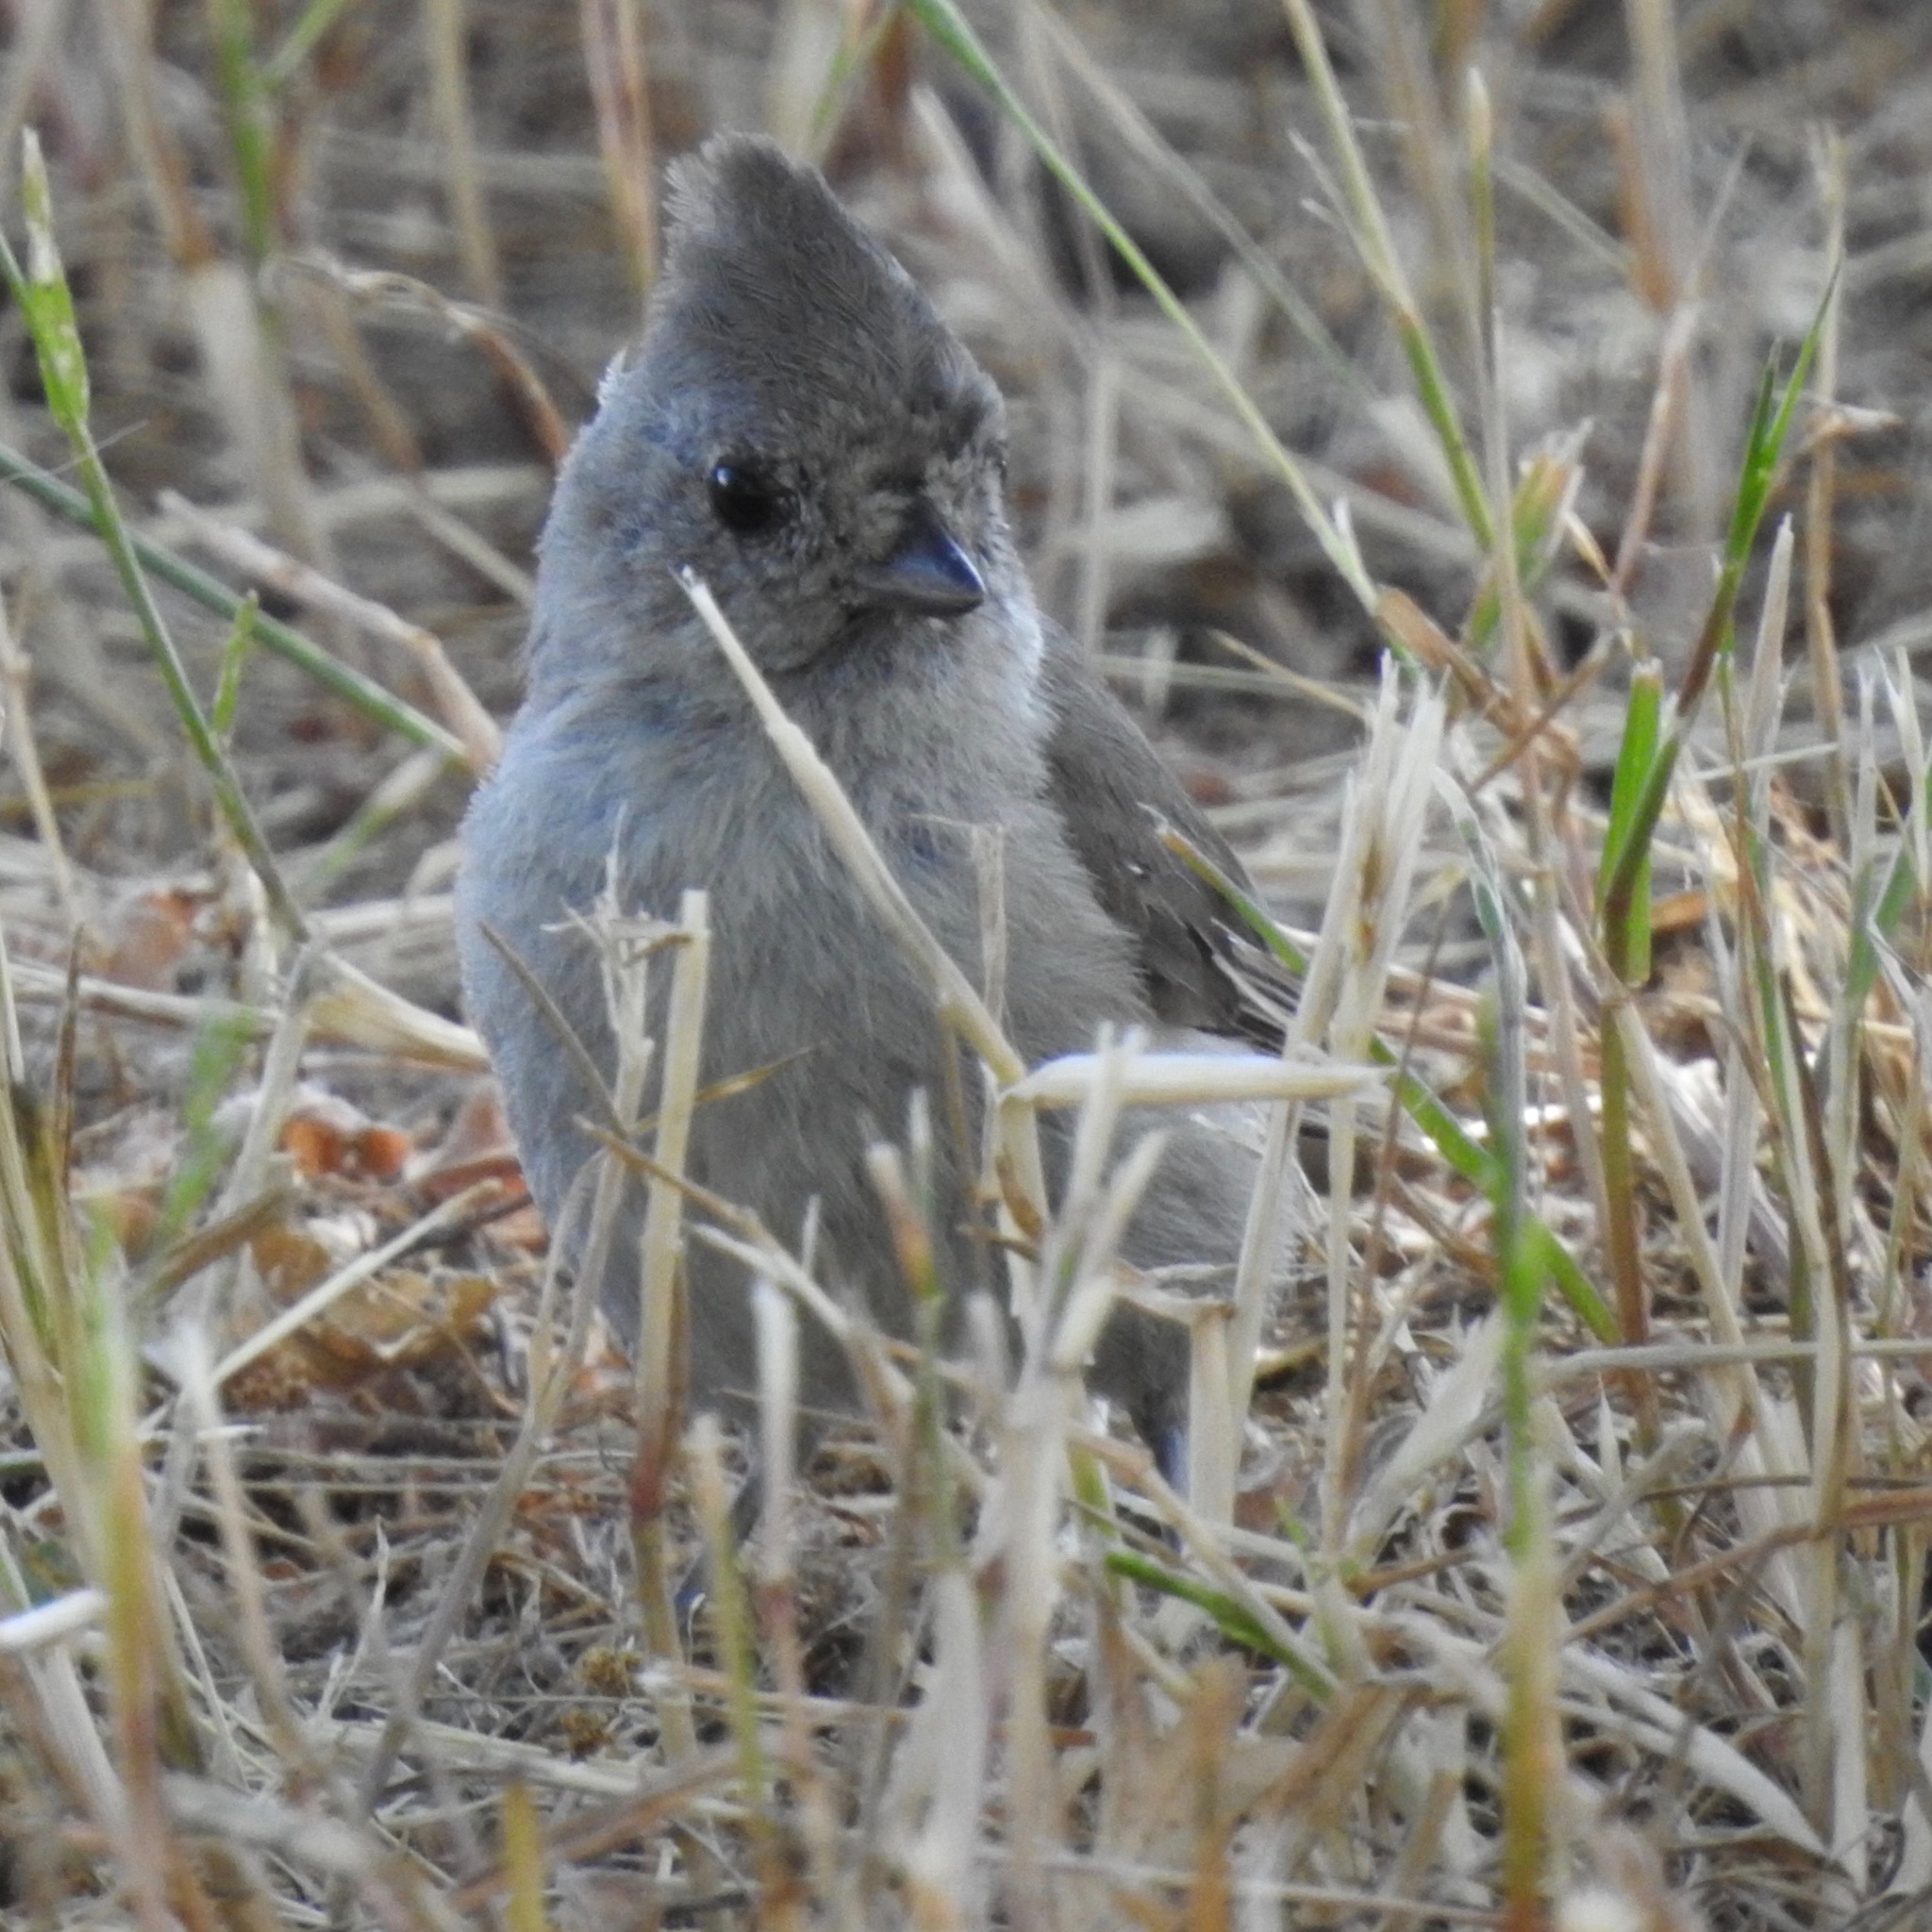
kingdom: Animalia
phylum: Chordata
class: Aves
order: Passeriformes
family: Paridae
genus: Baeolophus
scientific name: Baeolophus inornatus
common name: Oak titmouse
